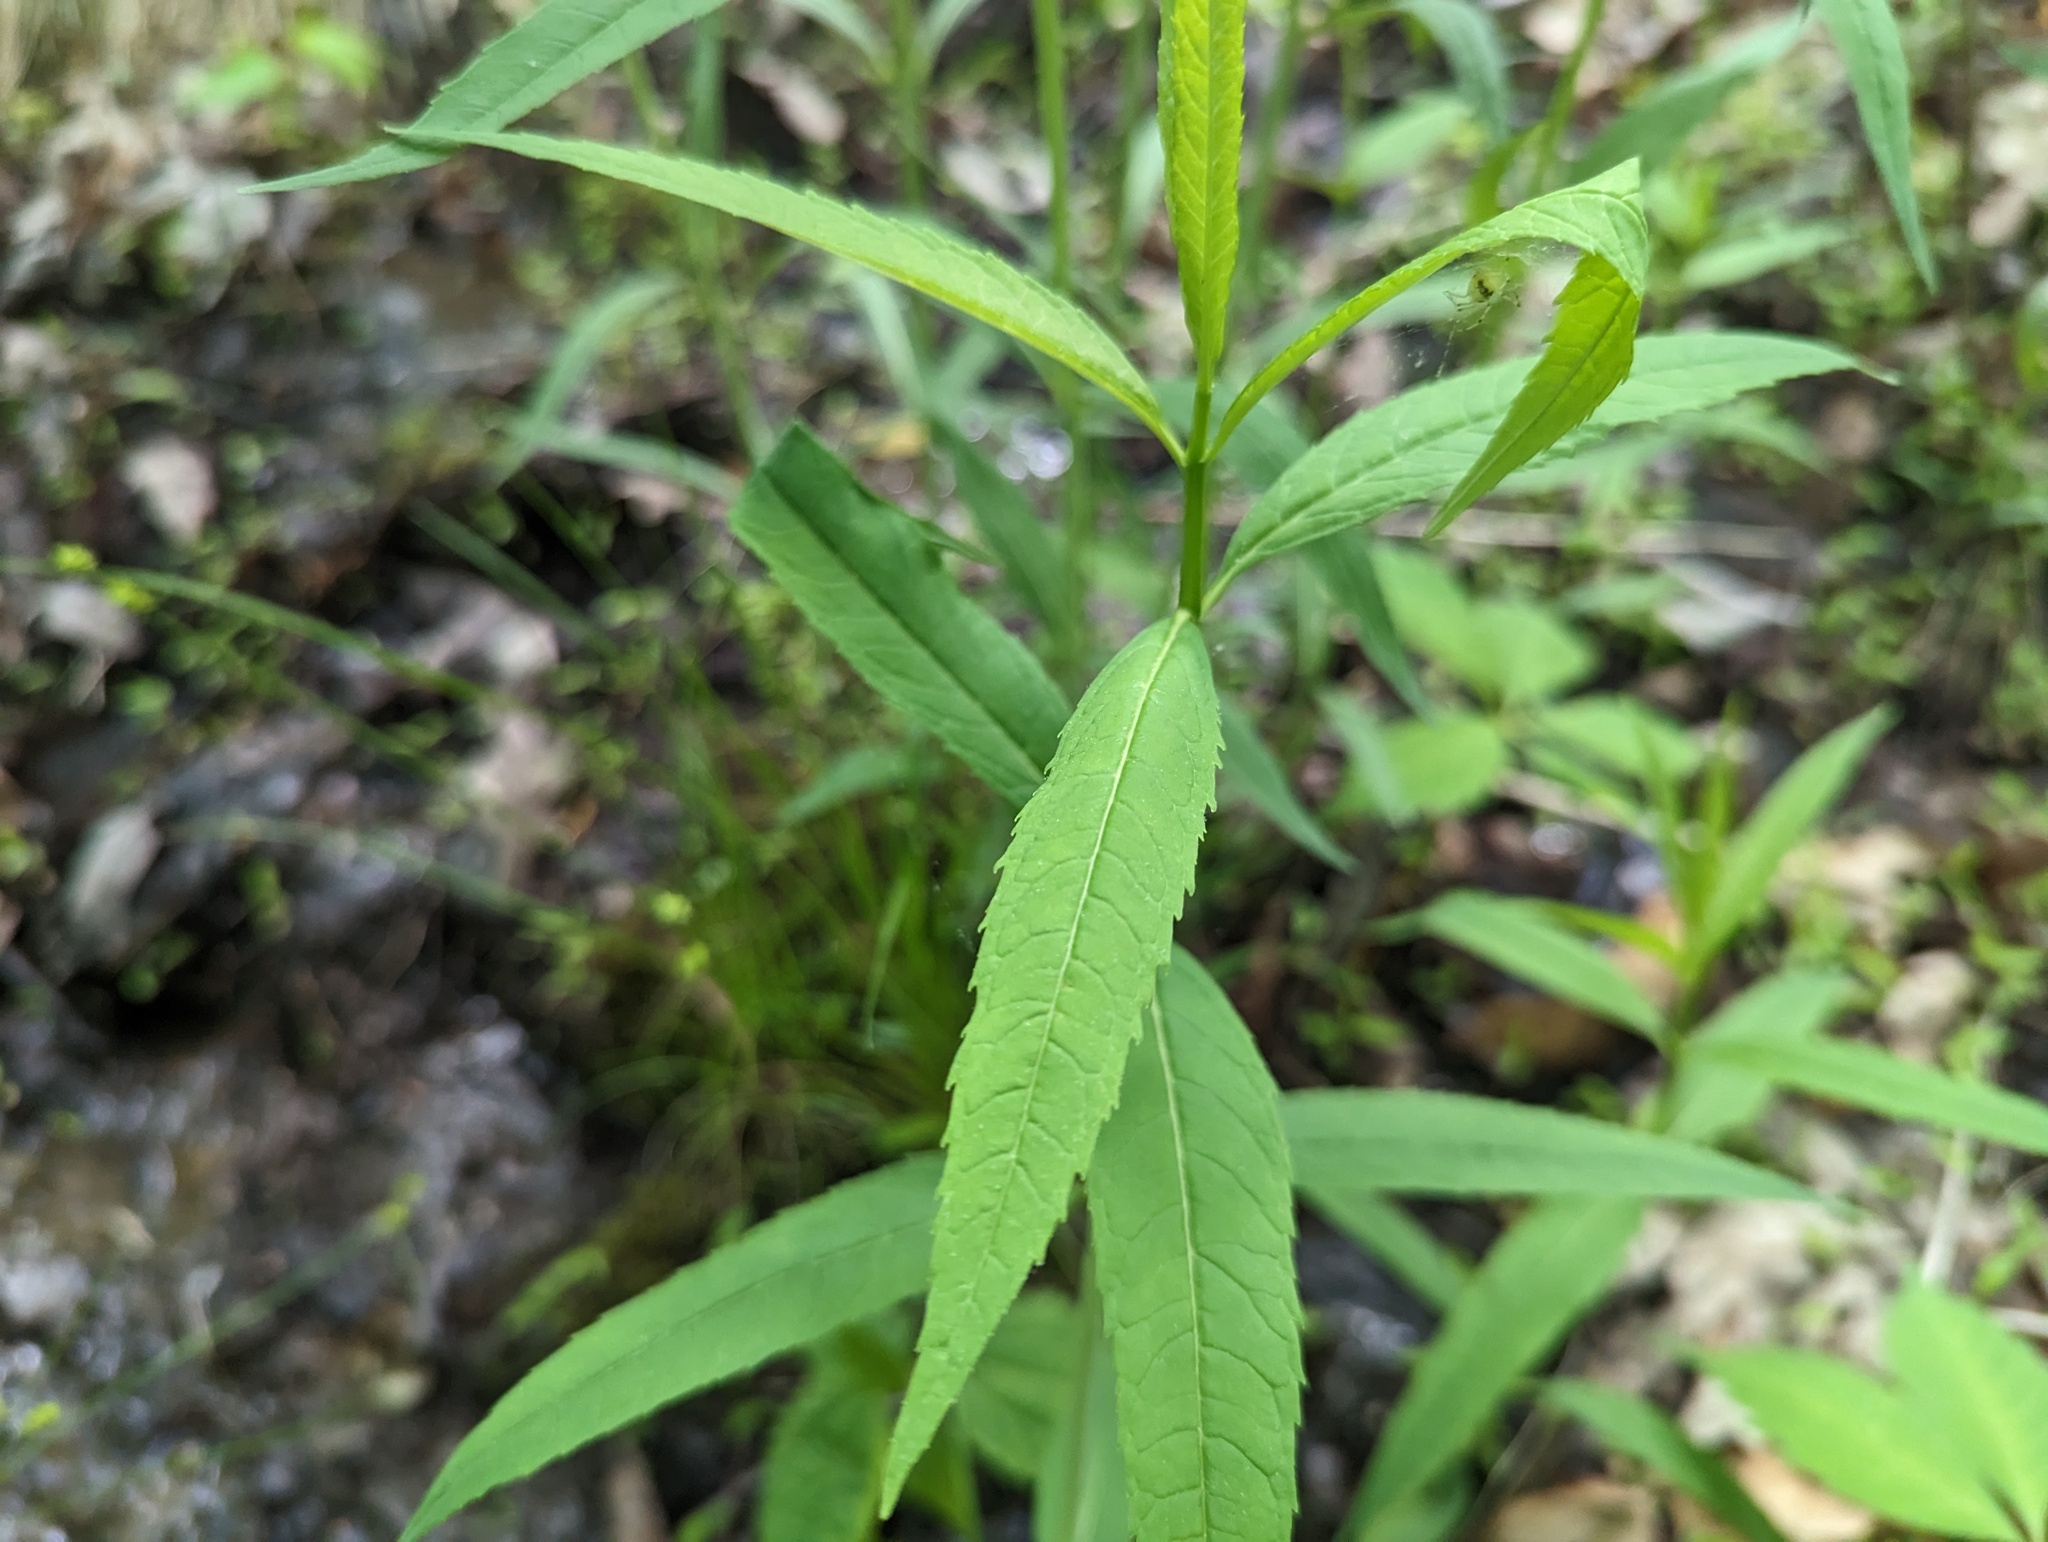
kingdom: Plantae
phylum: Tracheophyta
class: Magnoliopsida
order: Lamiales
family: Plantaginaceae
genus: Chelone
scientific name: Chelone glabra
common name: Snakehead
